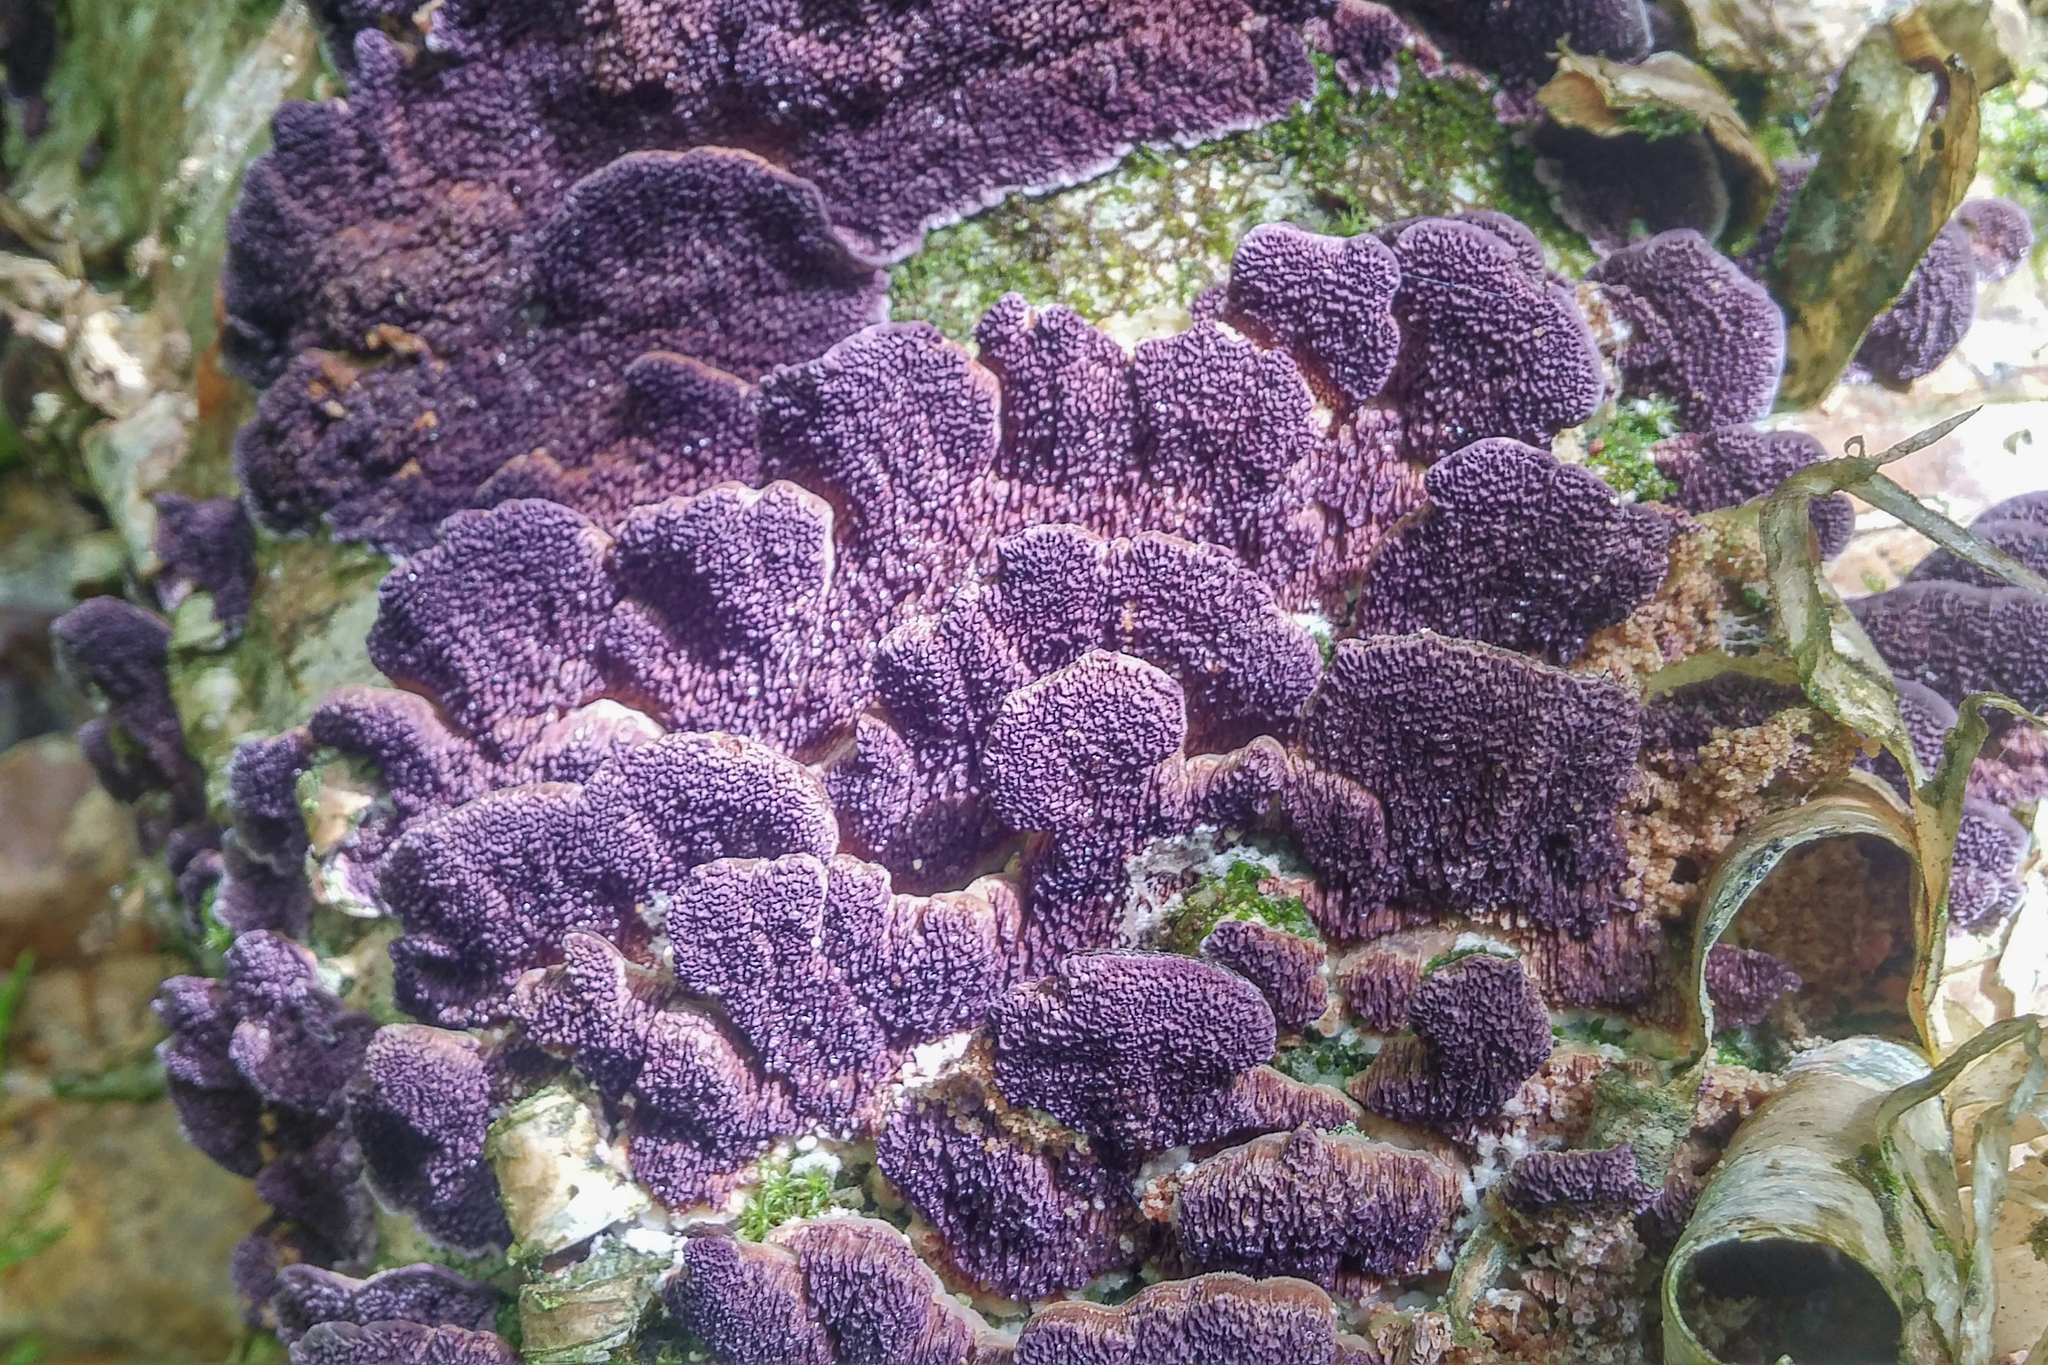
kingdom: Fungi
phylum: Basidiomycota
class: Agaricomycetes
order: Hymenochaetales
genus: Trichaptum
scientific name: Trichaptum biforme
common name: Violet-toothed polypore
